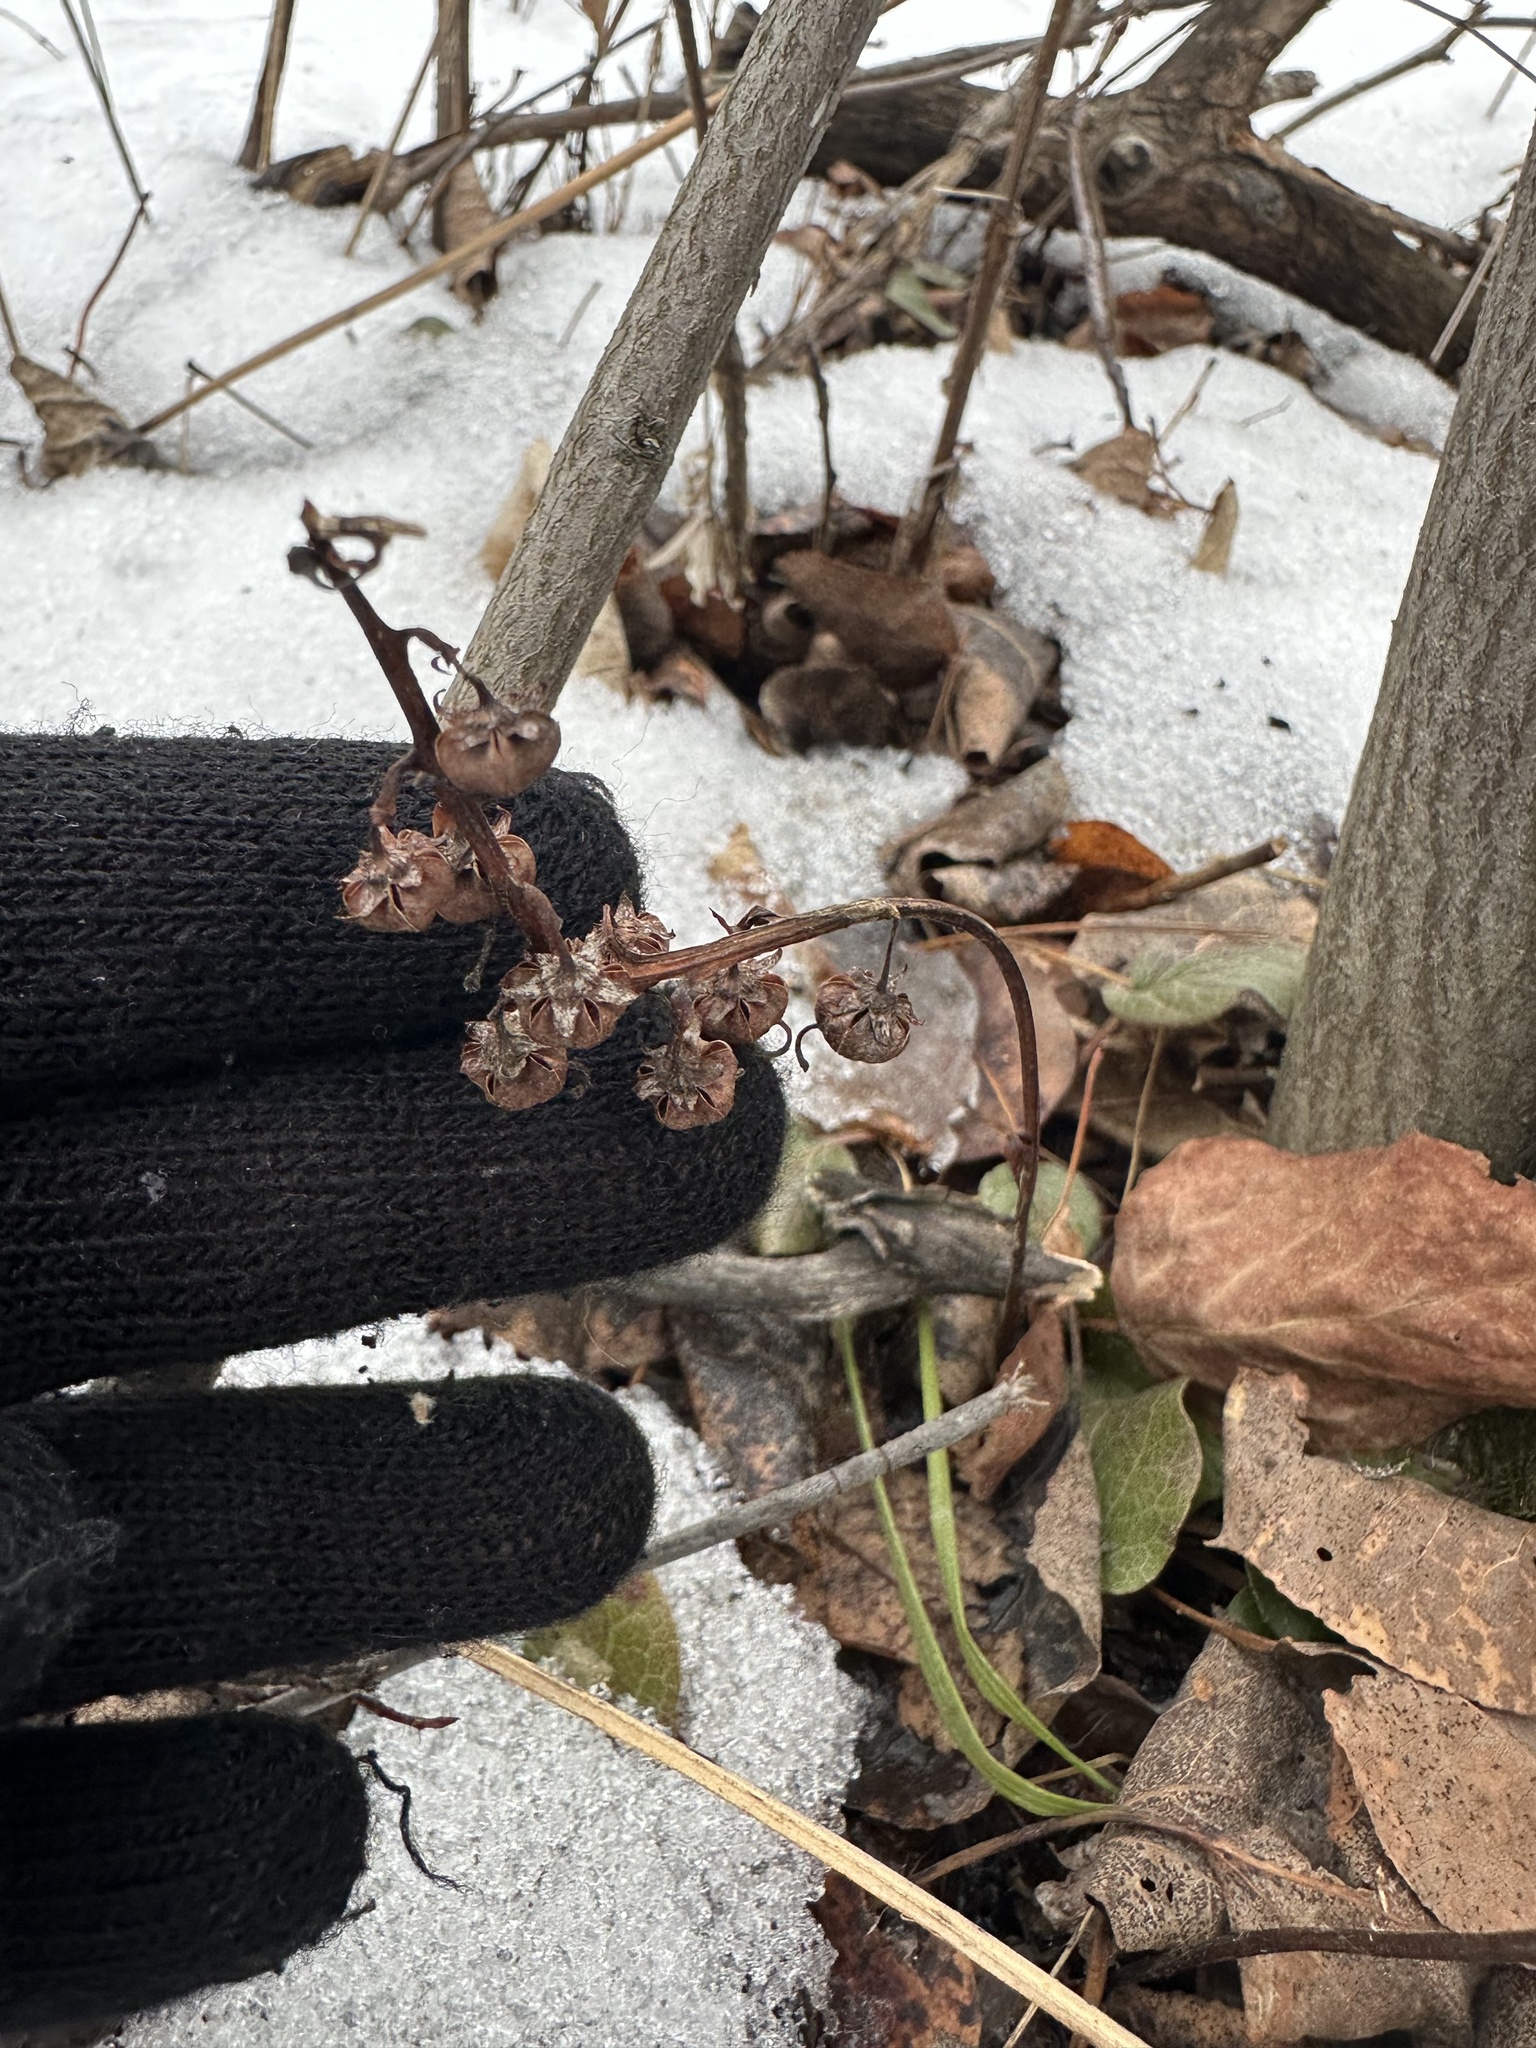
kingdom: Plantae
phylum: Tracheophyta
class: Magnoliopsida
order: Ericales
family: Ericaceae
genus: Pyrola
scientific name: Pyrola asarifolia
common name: Bog wintergreen
